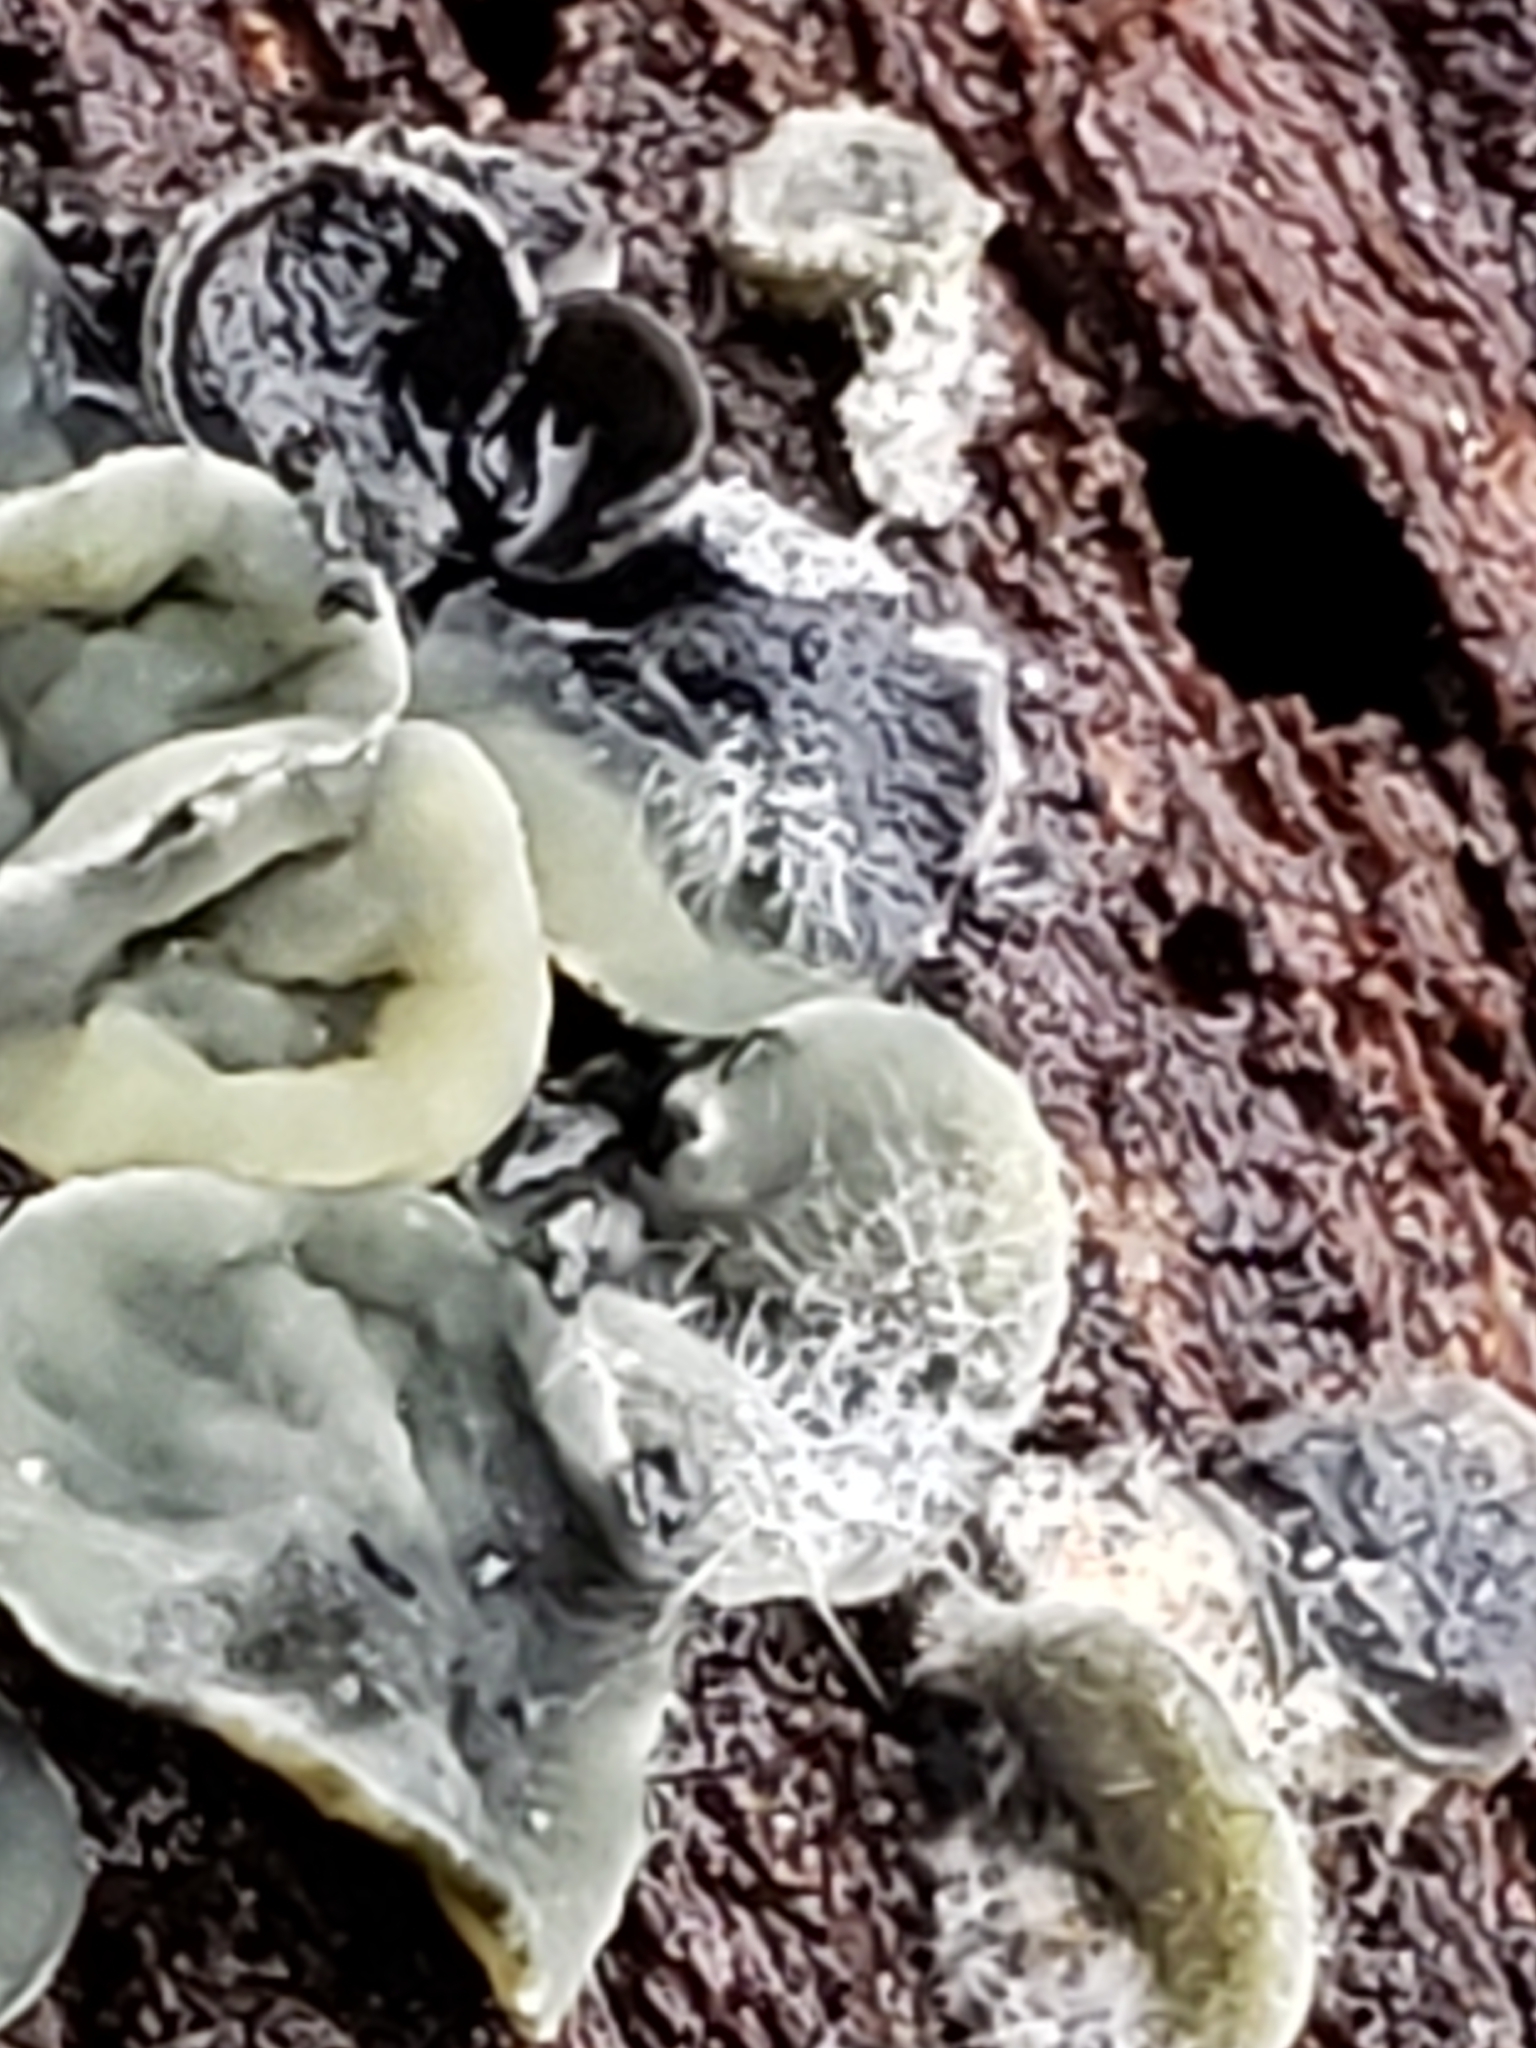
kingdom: Fungi
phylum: Ascomycota
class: Leotiomycetes
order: Helotiales
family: Chlorospleniaceae
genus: Chlorosplenium
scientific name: Chlorosplenium chlora
